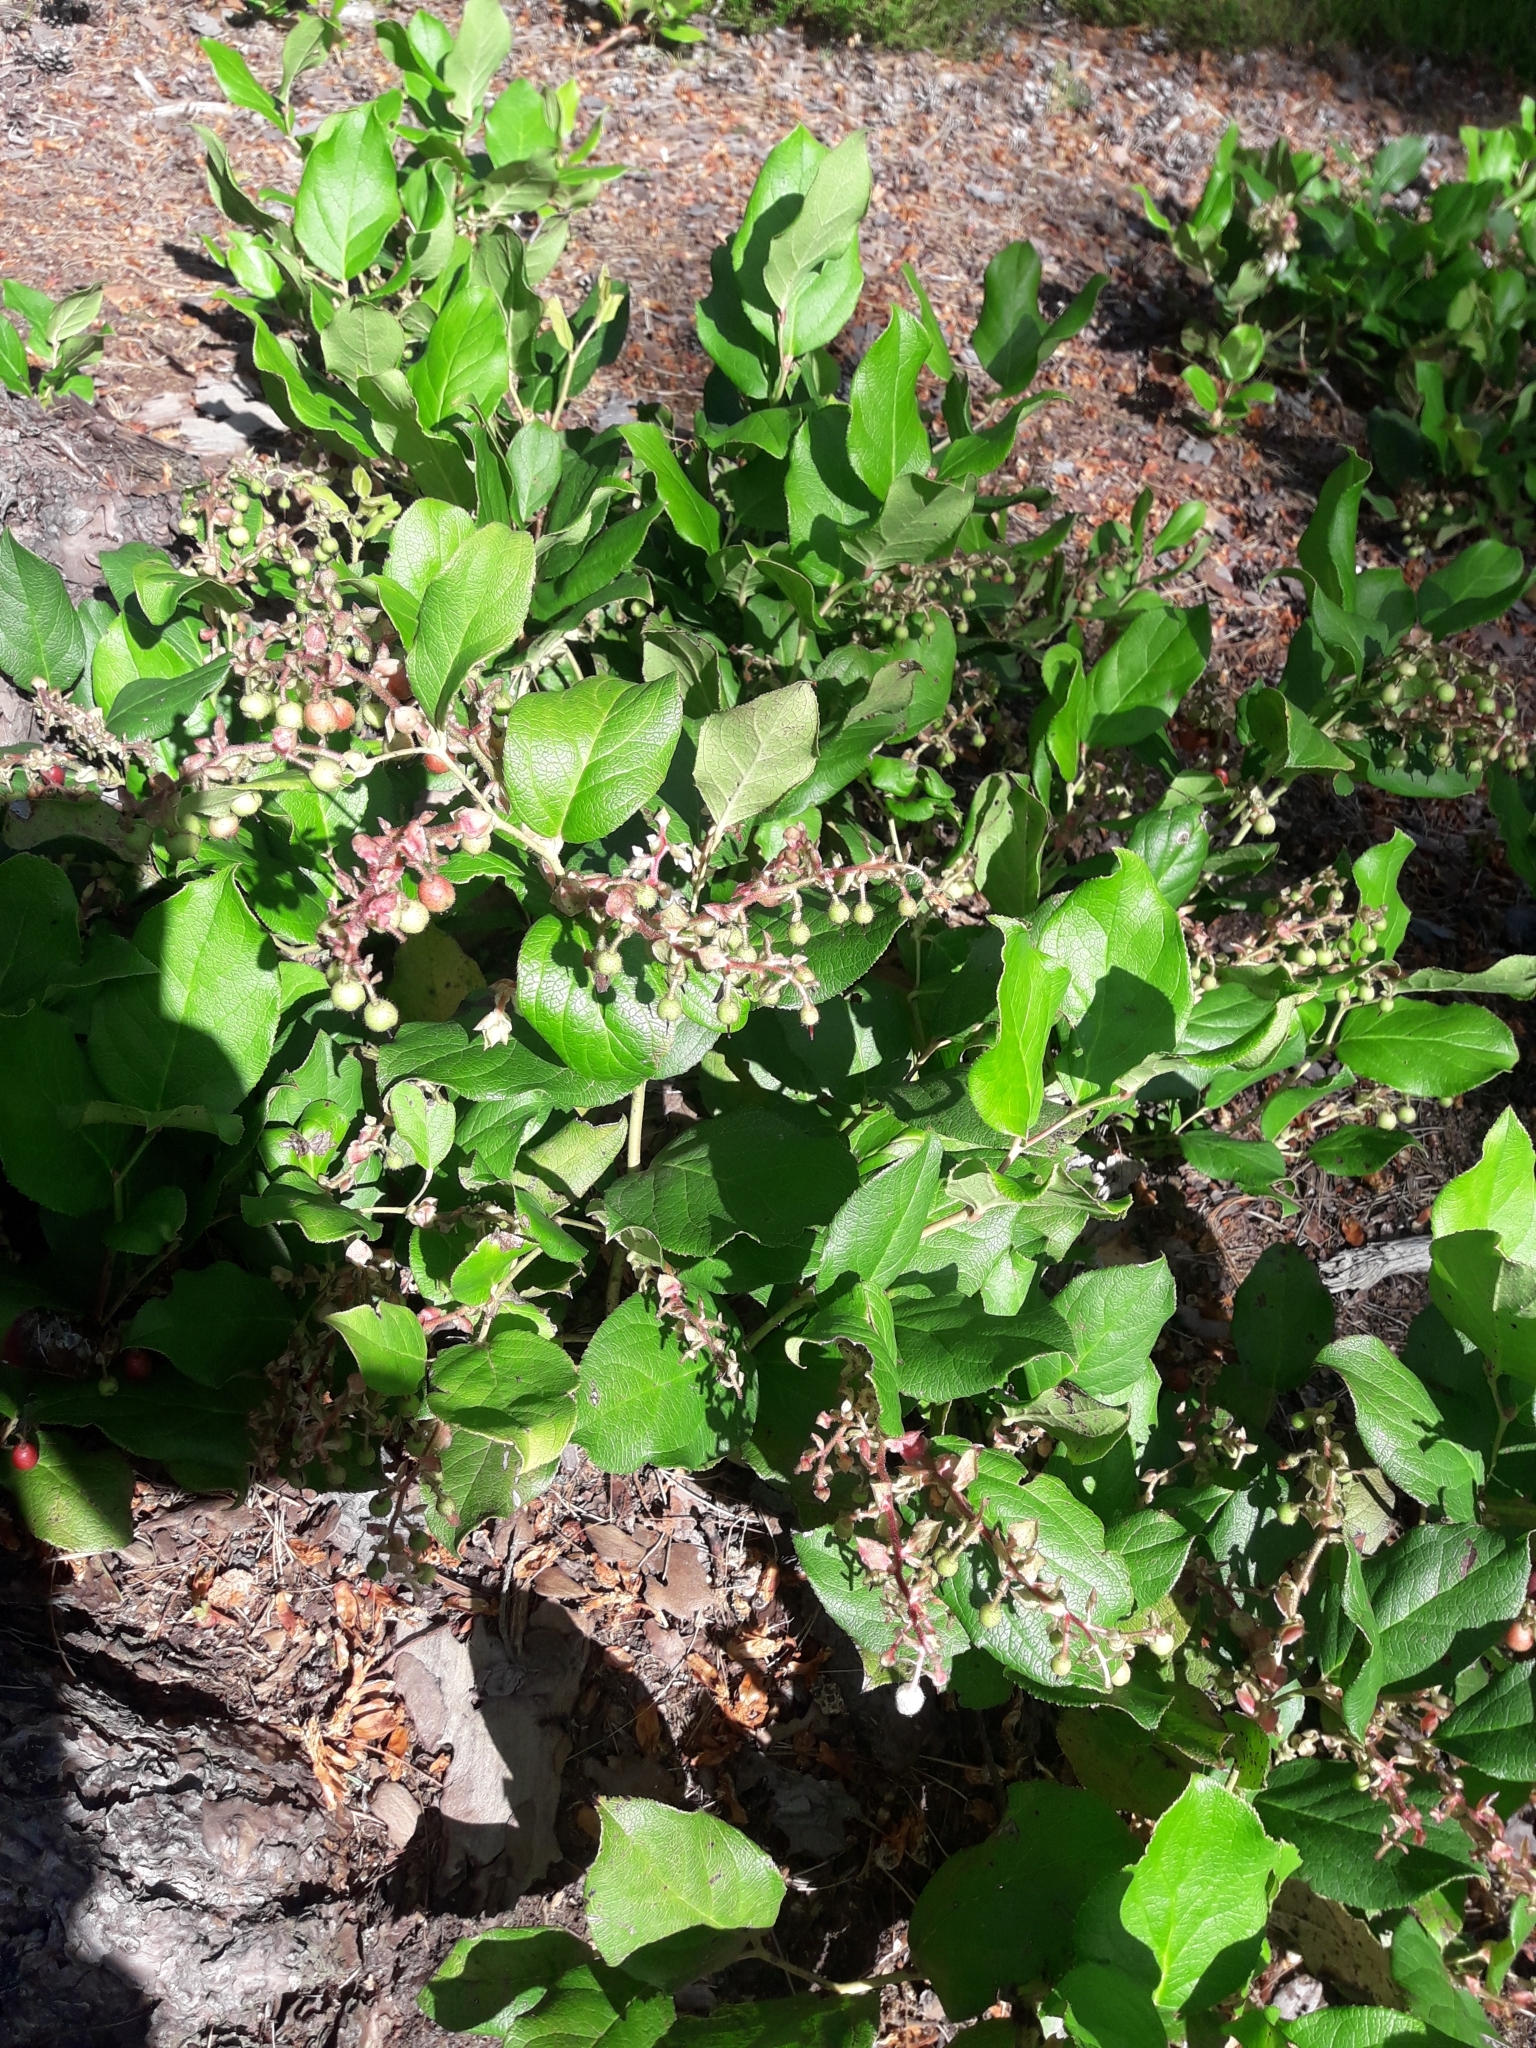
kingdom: Plantae
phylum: Tracheophyta
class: Magnoliopsida
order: Ericales
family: Ericaceae
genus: Gaultheria
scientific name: Gaultheria shallon
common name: Shallon
